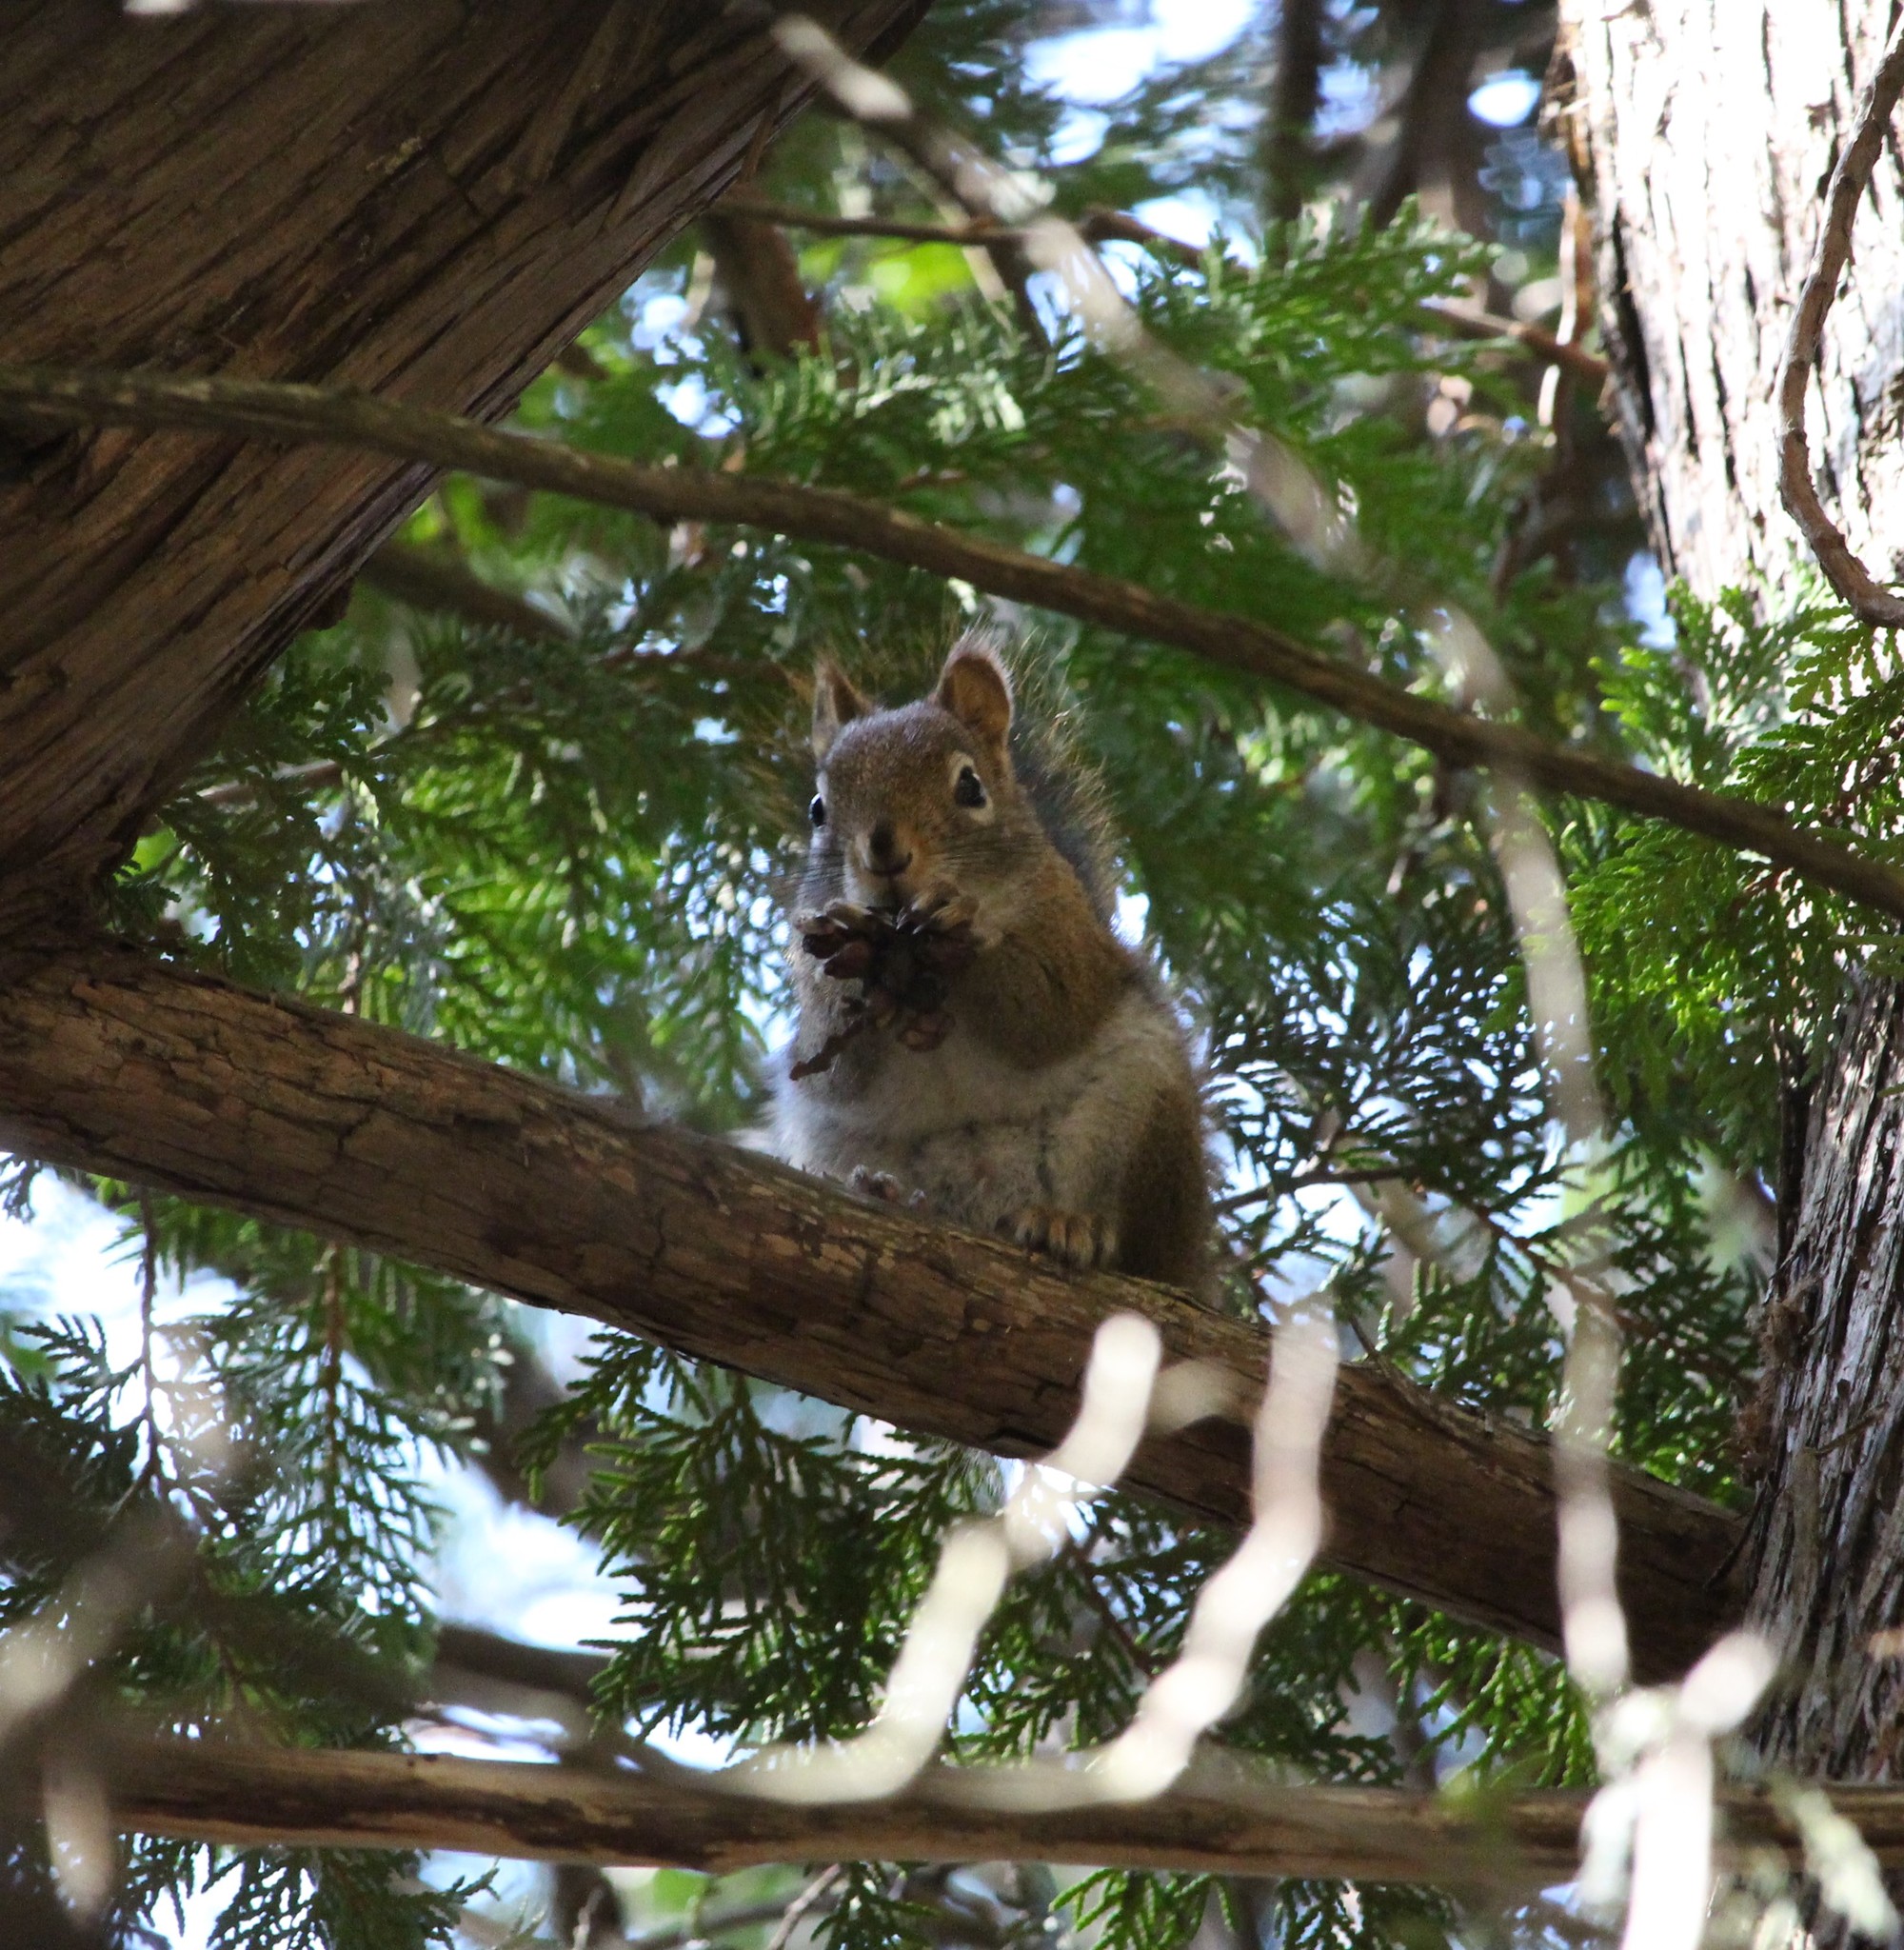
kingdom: Animalia
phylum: Chordata
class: Mammalia
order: Rodentia
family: Sciuridae
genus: Tamiasciurus
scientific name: Tamiasciurus hudsonicus
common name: Red squirrel
